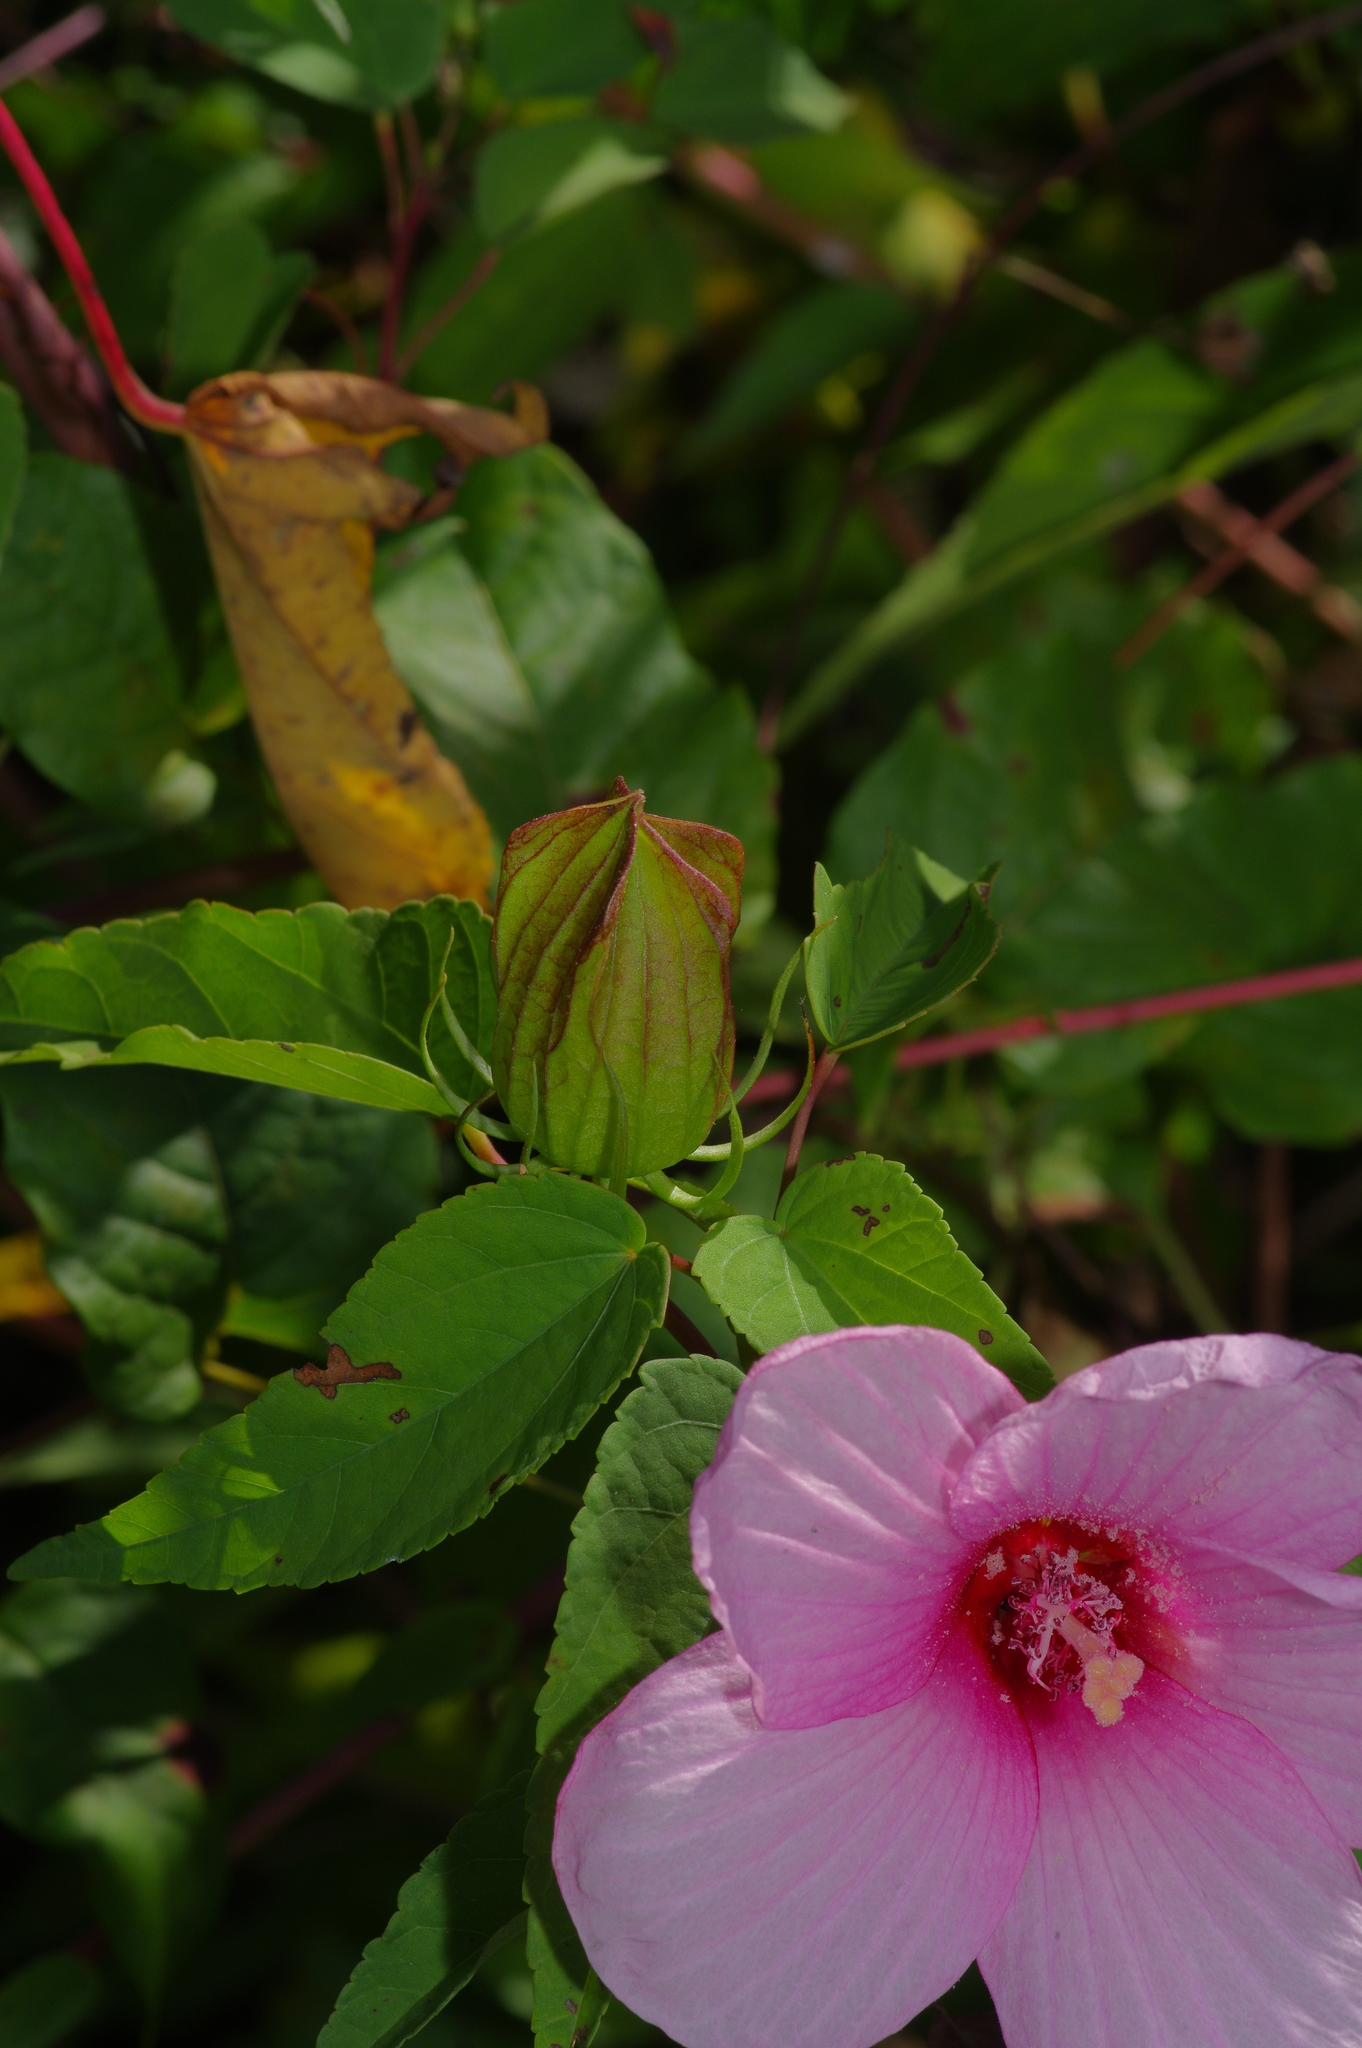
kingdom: Plantae
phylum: Tracheophyta
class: Magnoliopsida
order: Malvales
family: Malvaceae
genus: Hibiscus
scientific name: Hibiscus laevis
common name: Scarlet rose-mallow
